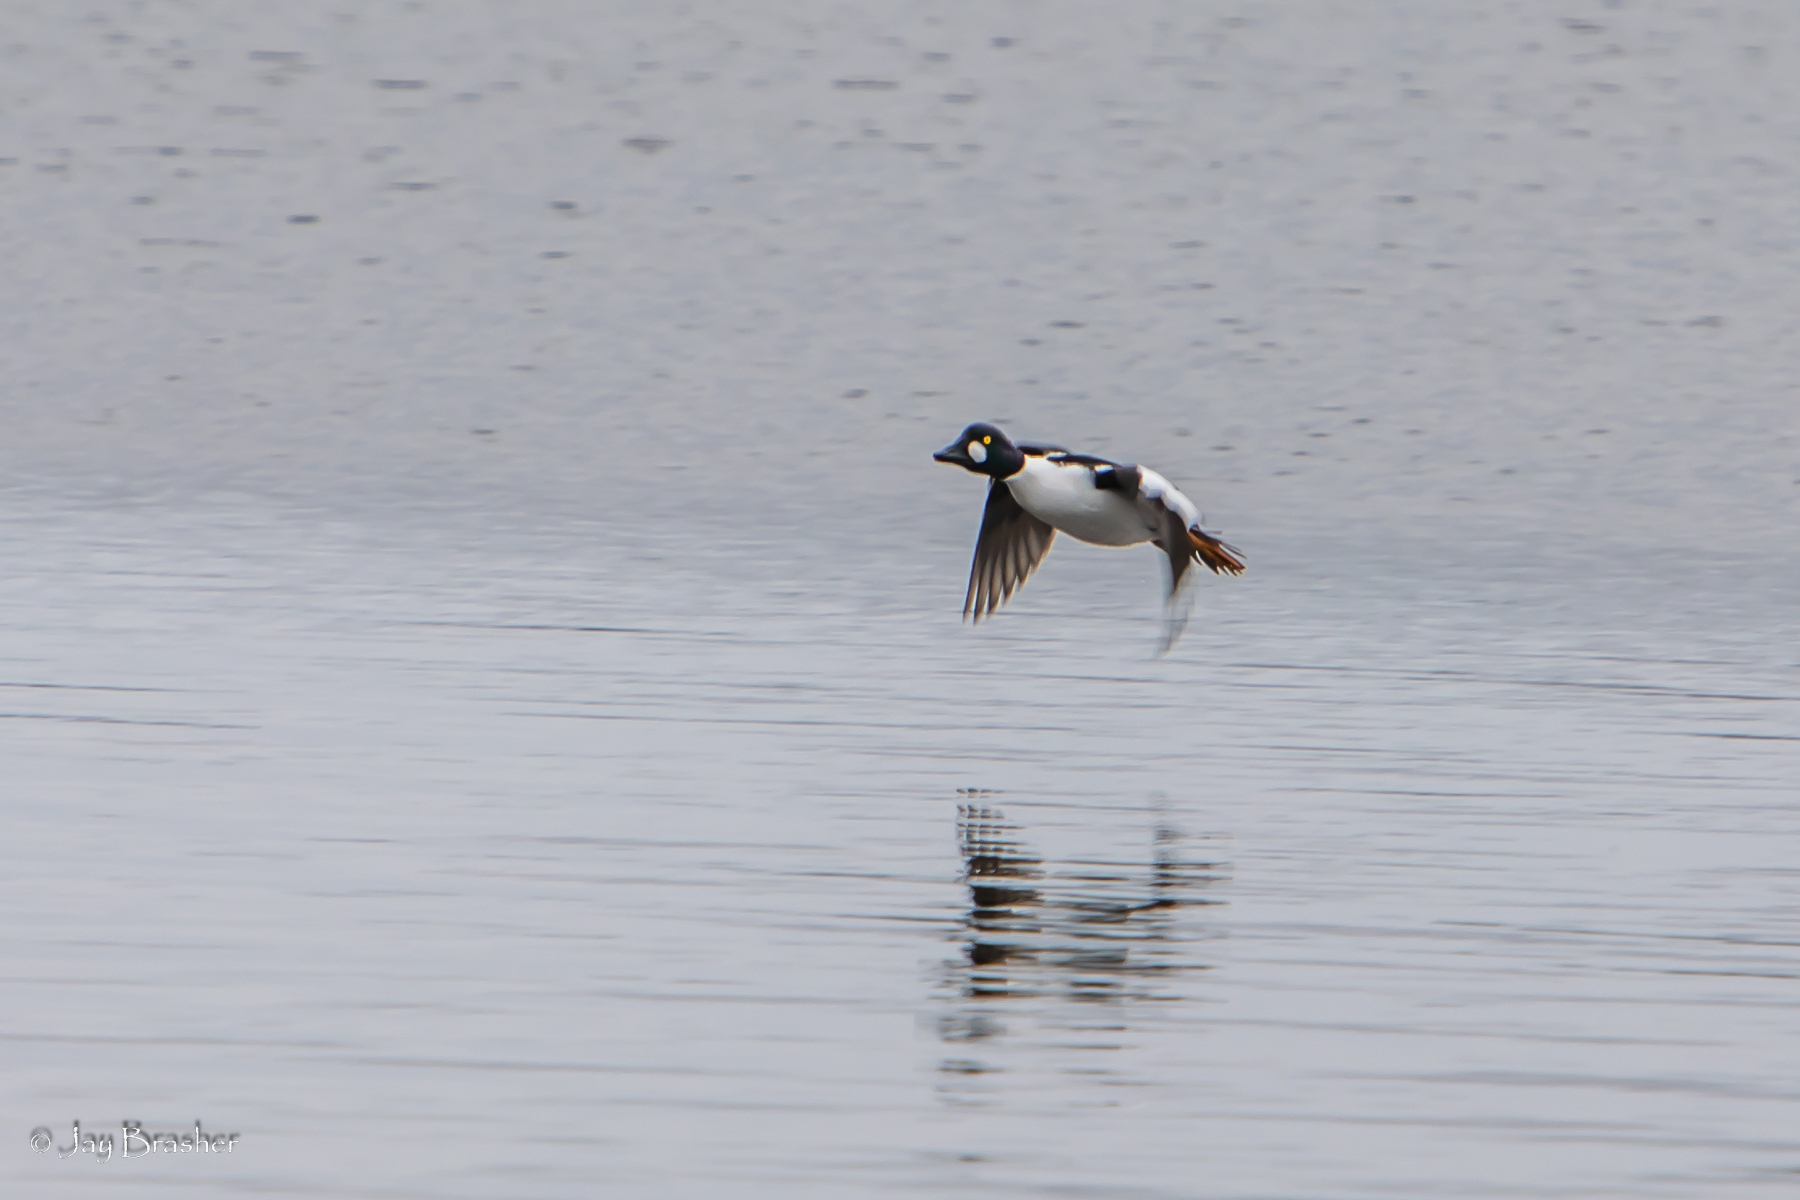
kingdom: Animalia
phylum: Chordata
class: Aves
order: Anseriformes
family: Anatidae
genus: Bucephala
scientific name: Bucephala clangula
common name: Common goldeneye
